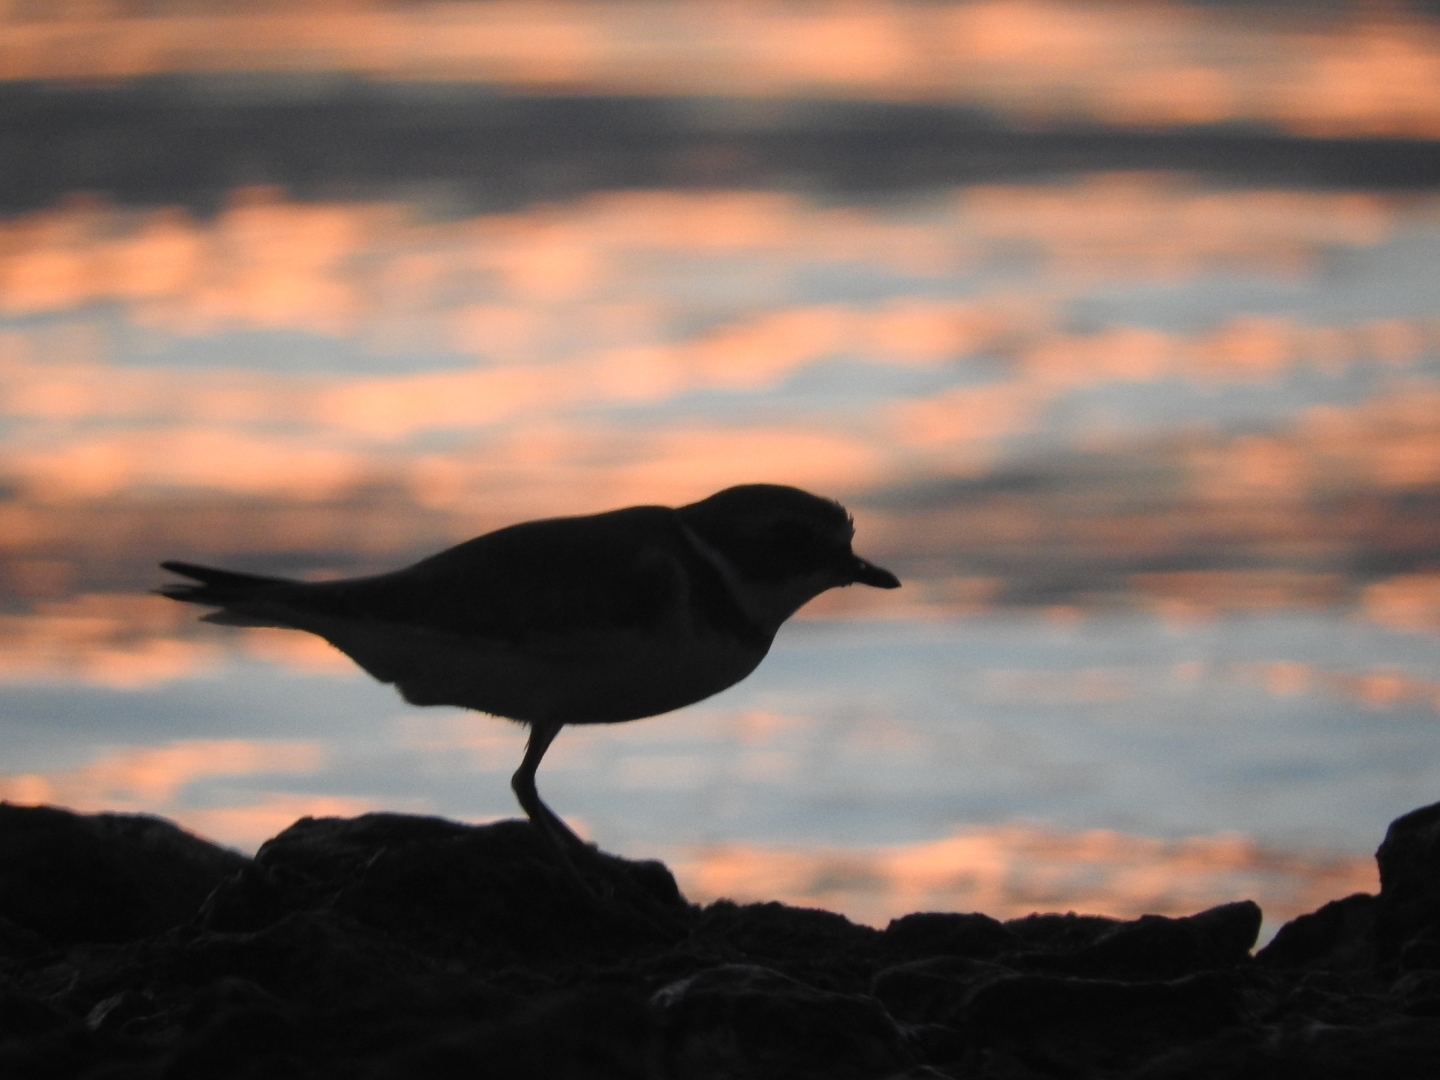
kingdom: Animalia
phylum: Chordata
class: Aves
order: Charadriiformes
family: Charadriidae
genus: Charadrius
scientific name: Charadrius semipalmatus
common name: Semipalmated plover
